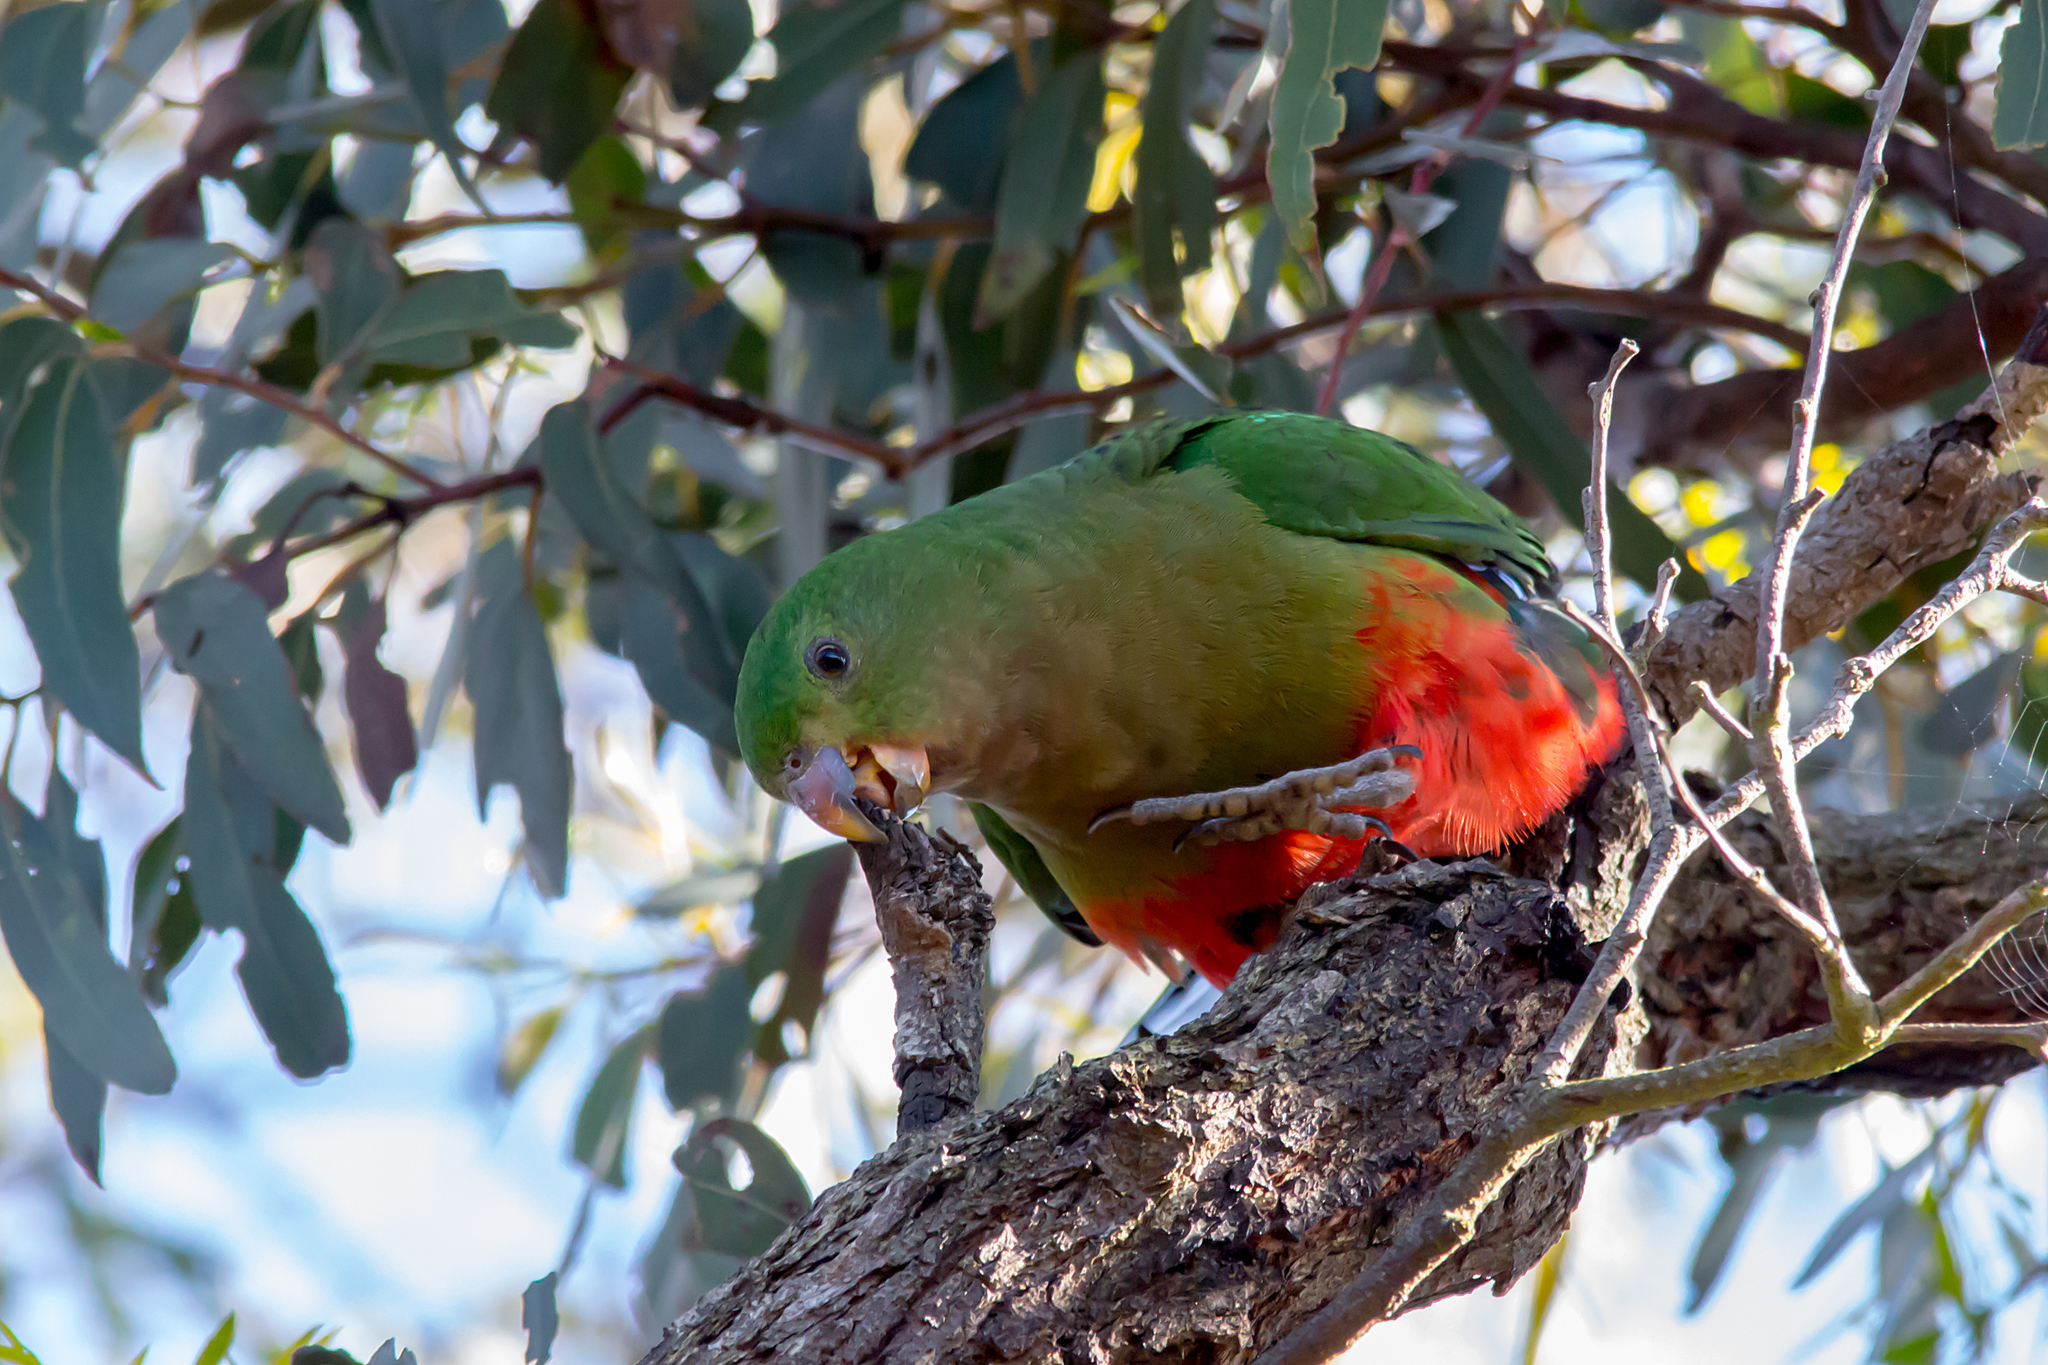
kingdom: Animalia
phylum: Chordata
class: Aves
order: Psittaciformes
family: Psittacidae
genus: Alisterus
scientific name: Alisterus scapularis
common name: Australian king parrot
